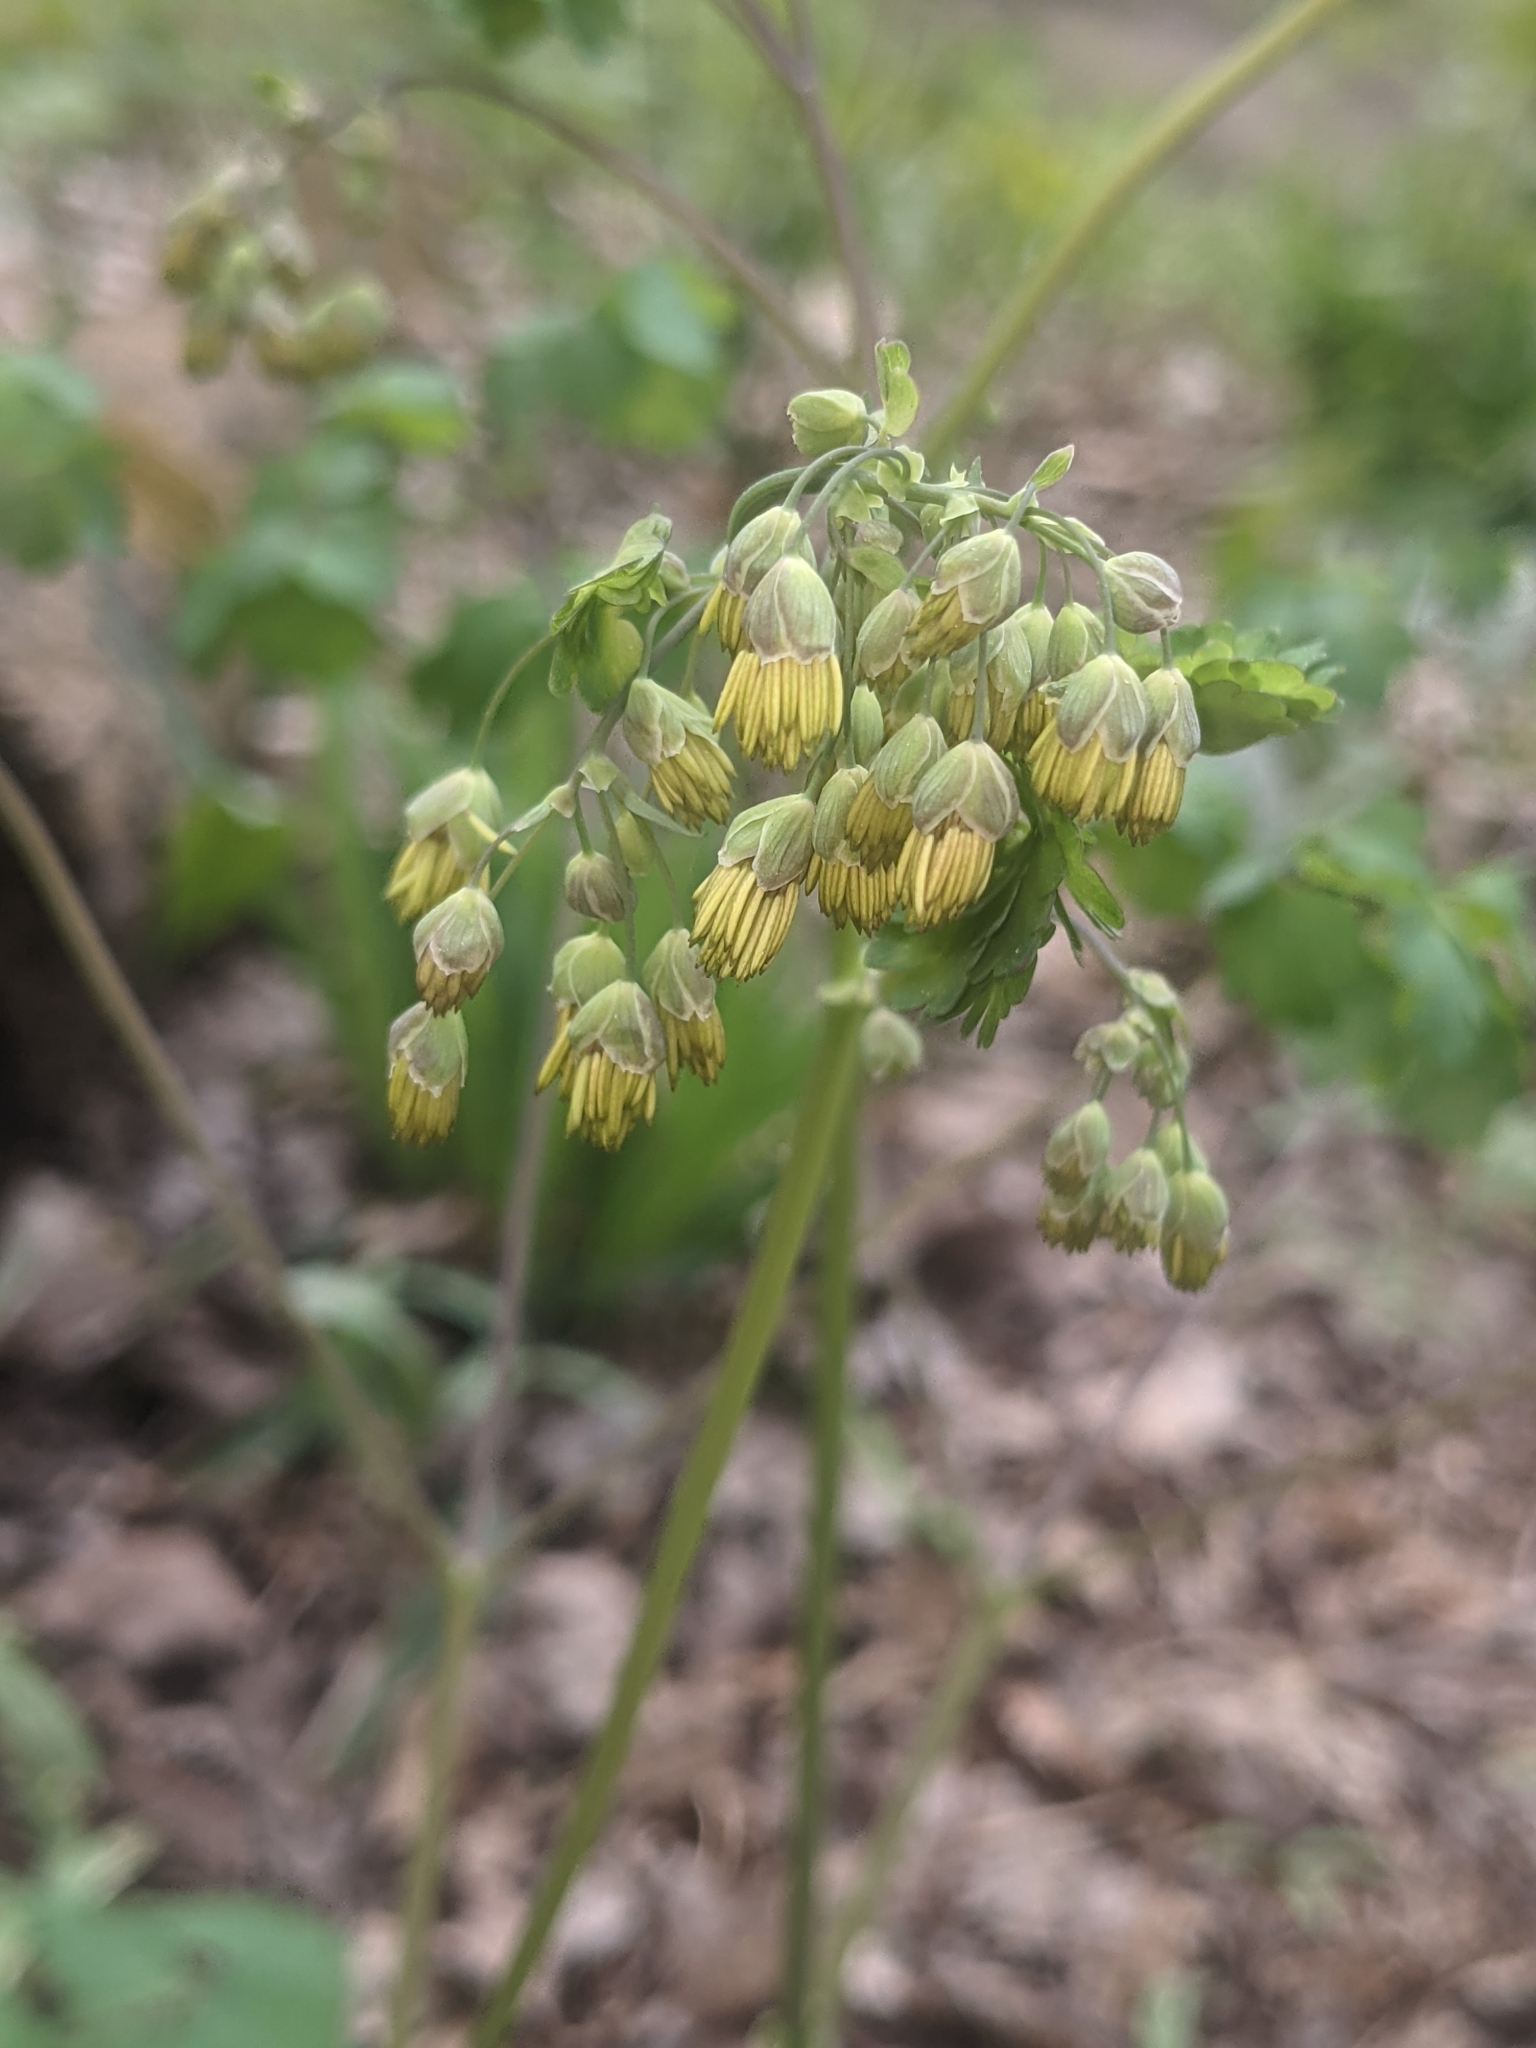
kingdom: Plantae
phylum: Tracheophyta
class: Magnoliopsida
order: Ranunculales
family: Ranunculaceae
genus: Thalictrum
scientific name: Thalictrum dioicum
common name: Early meadow-rue
